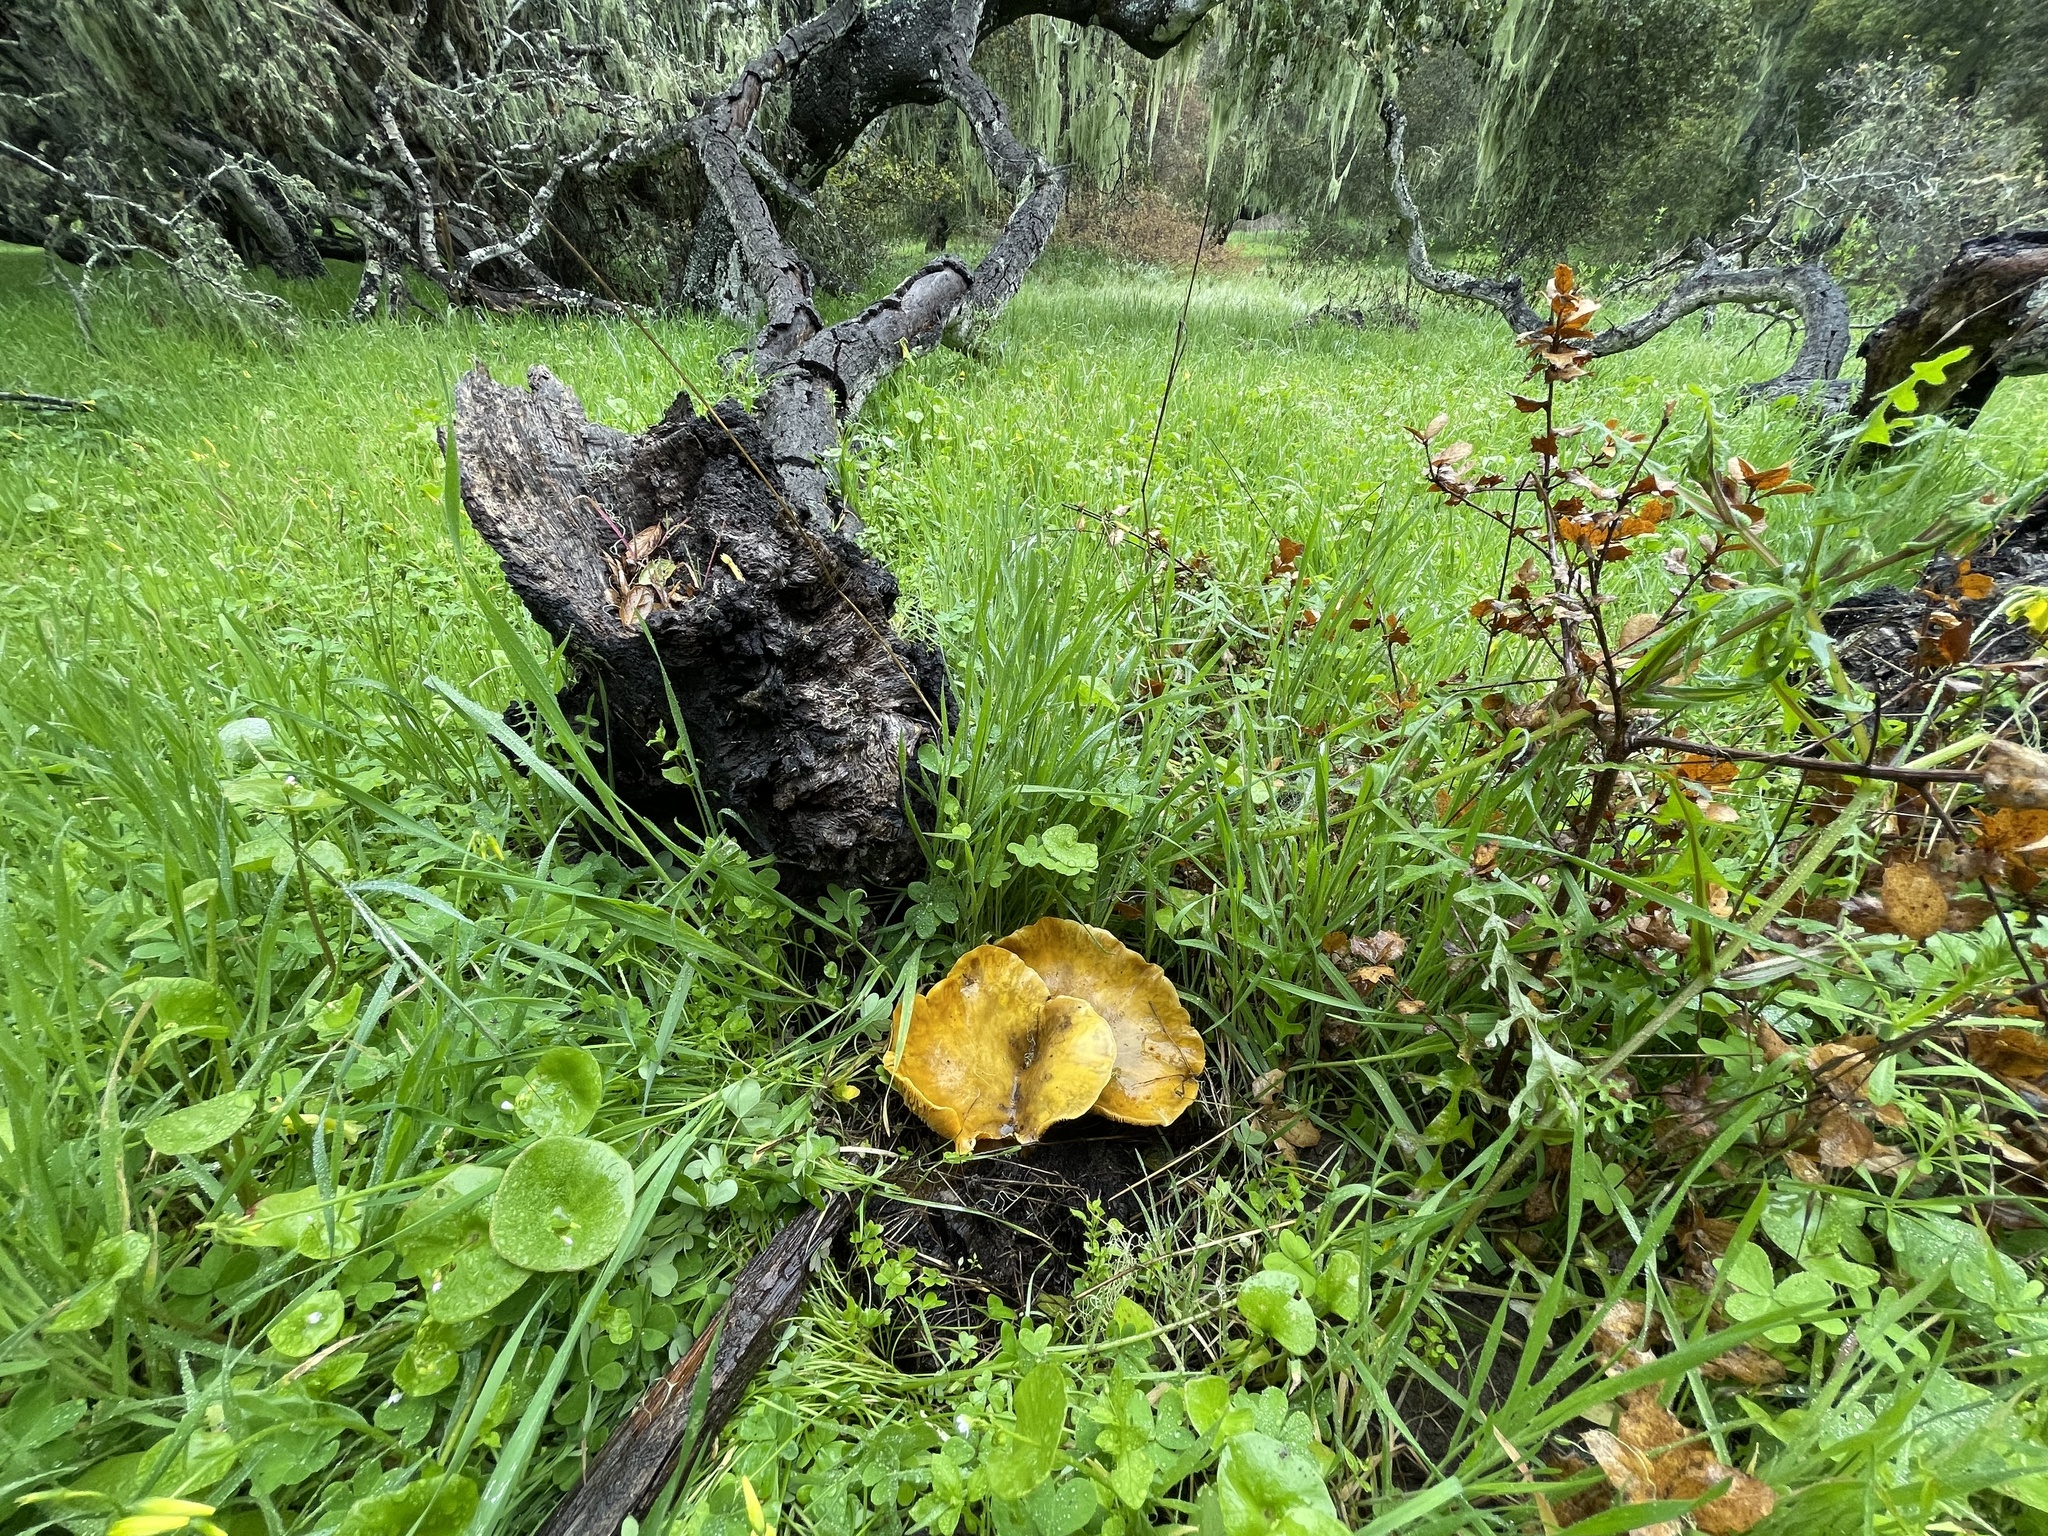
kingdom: Fungi
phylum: Basidiomycota
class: Agaricomycetes
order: Agaricales
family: Omphalotaceae
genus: Omphalotus
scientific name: Omphalotus olivascens
